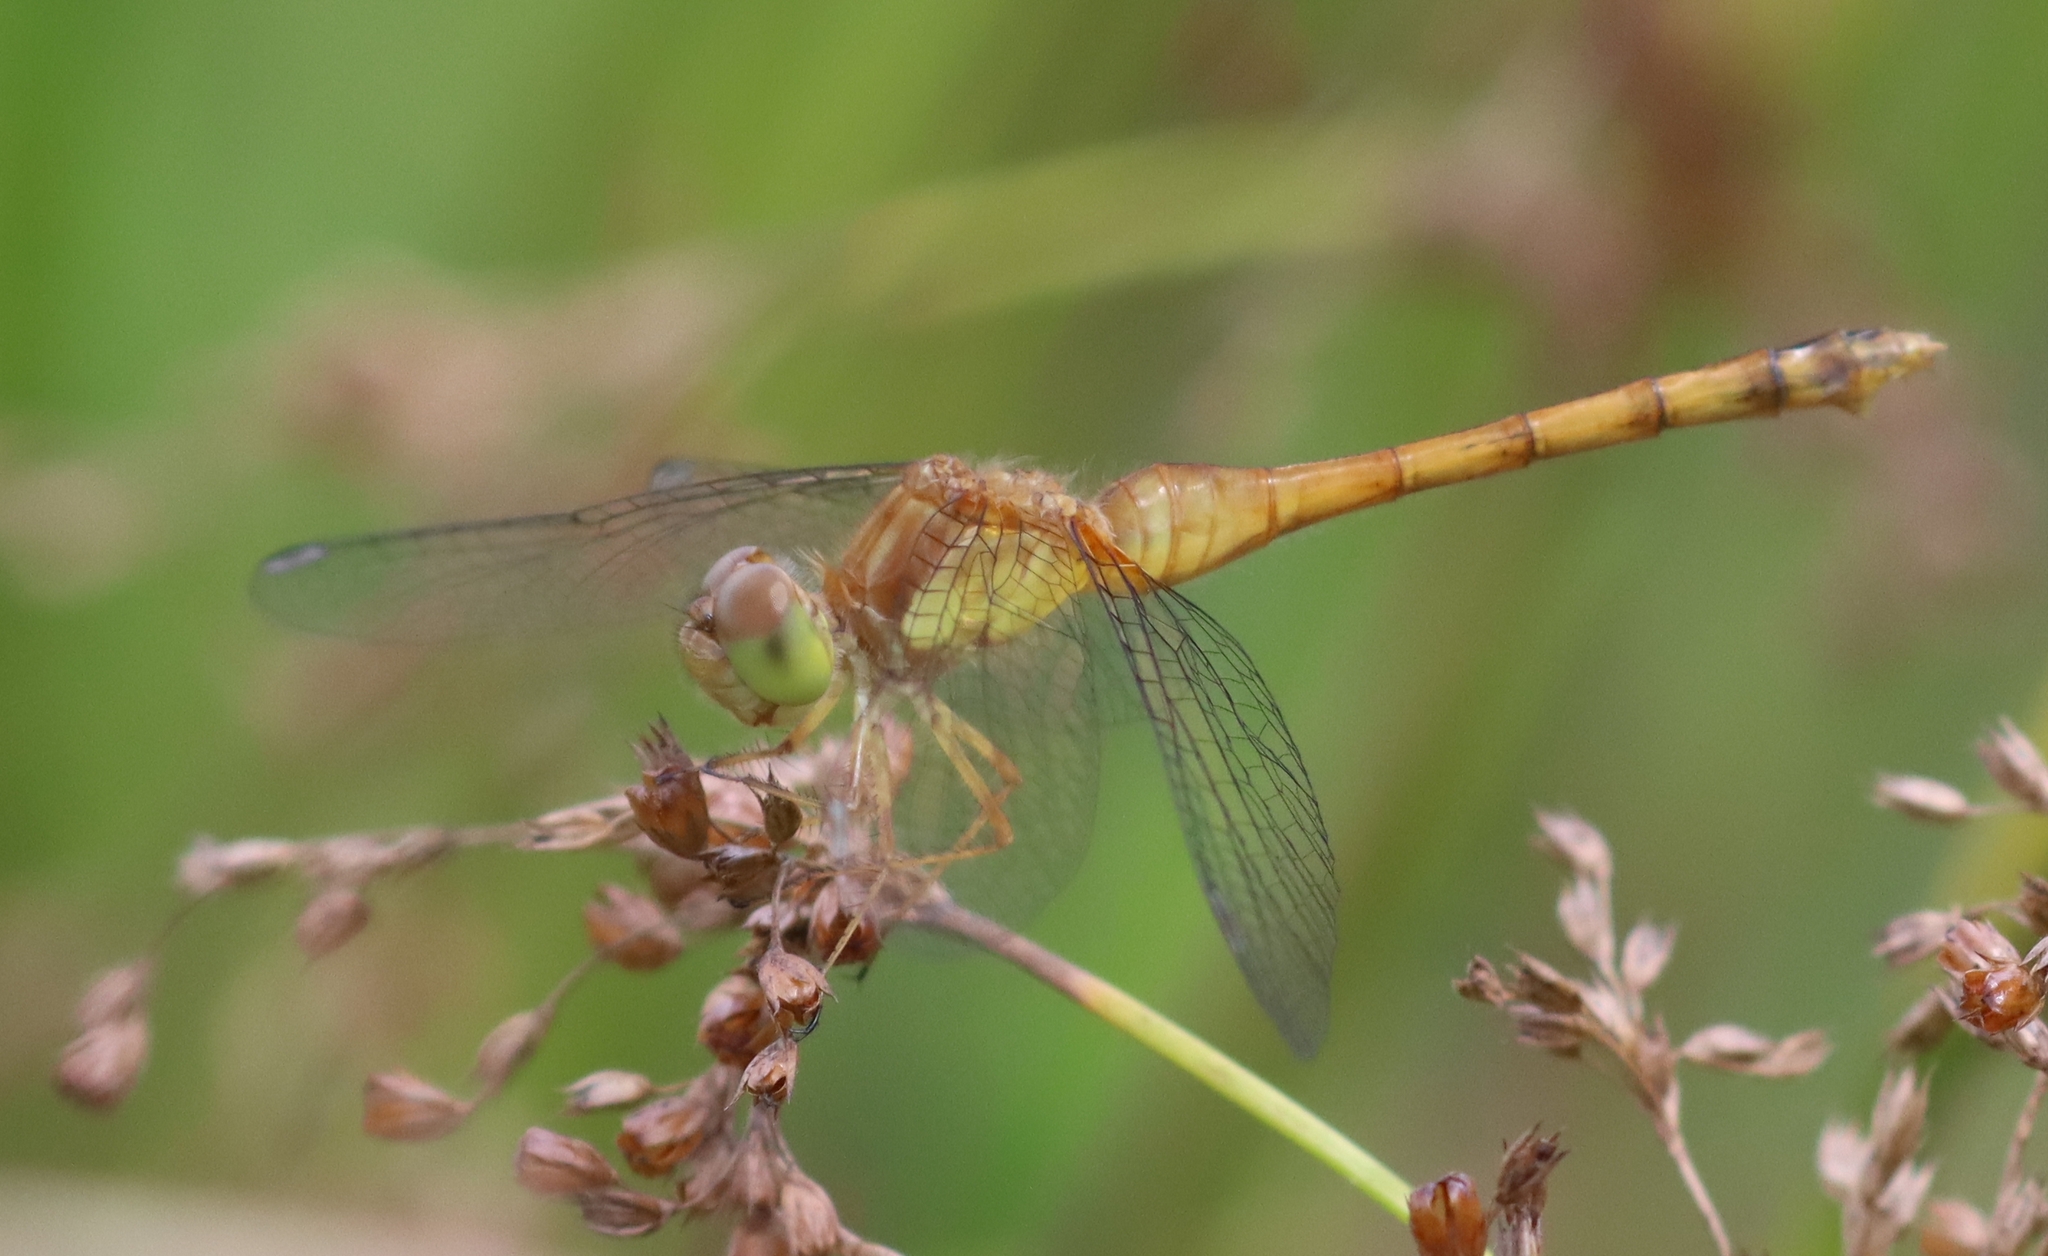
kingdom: Animalia
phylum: Arthropoda
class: Insecta
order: Odonata
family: Libellulidae
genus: Sympetrum
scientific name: Sympetrum vicinum
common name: Autumn meadowhawk
